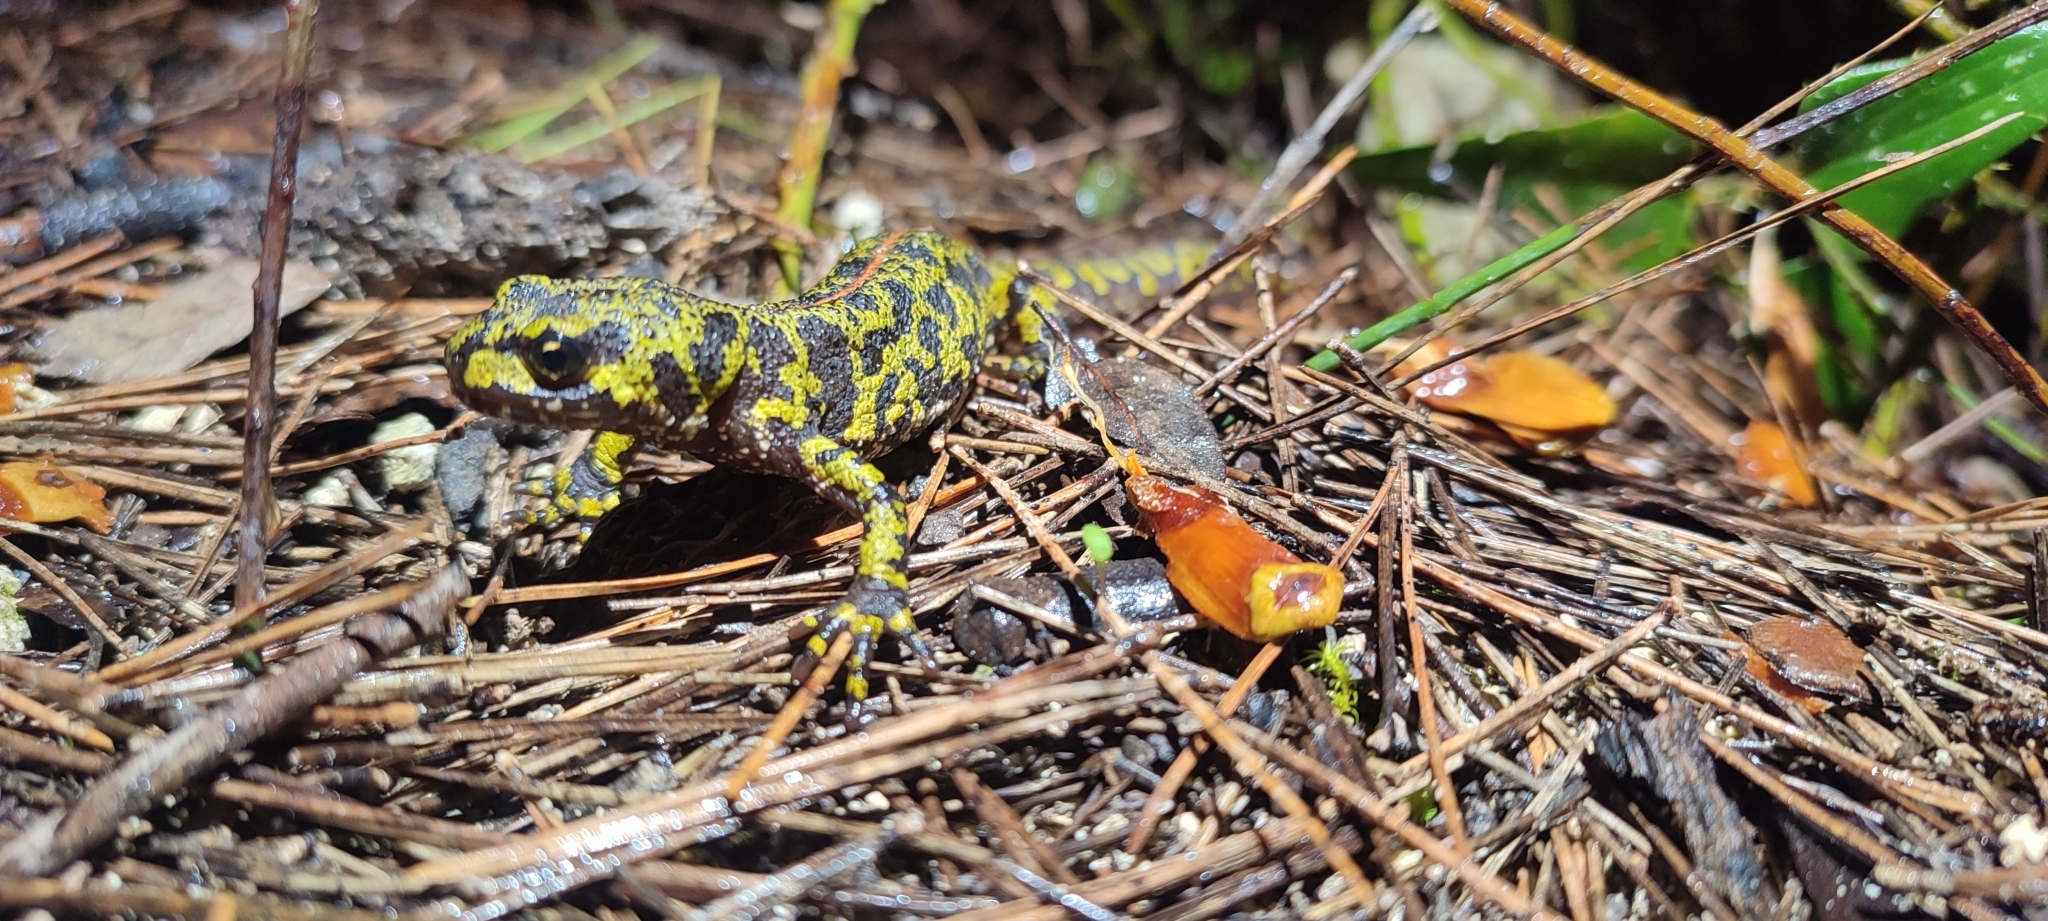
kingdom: Animalia
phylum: Chordata
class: Amphibia
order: Caudata
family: Salamandridae
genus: Triturus
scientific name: Triturus marmoratus
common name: Marbled newt
